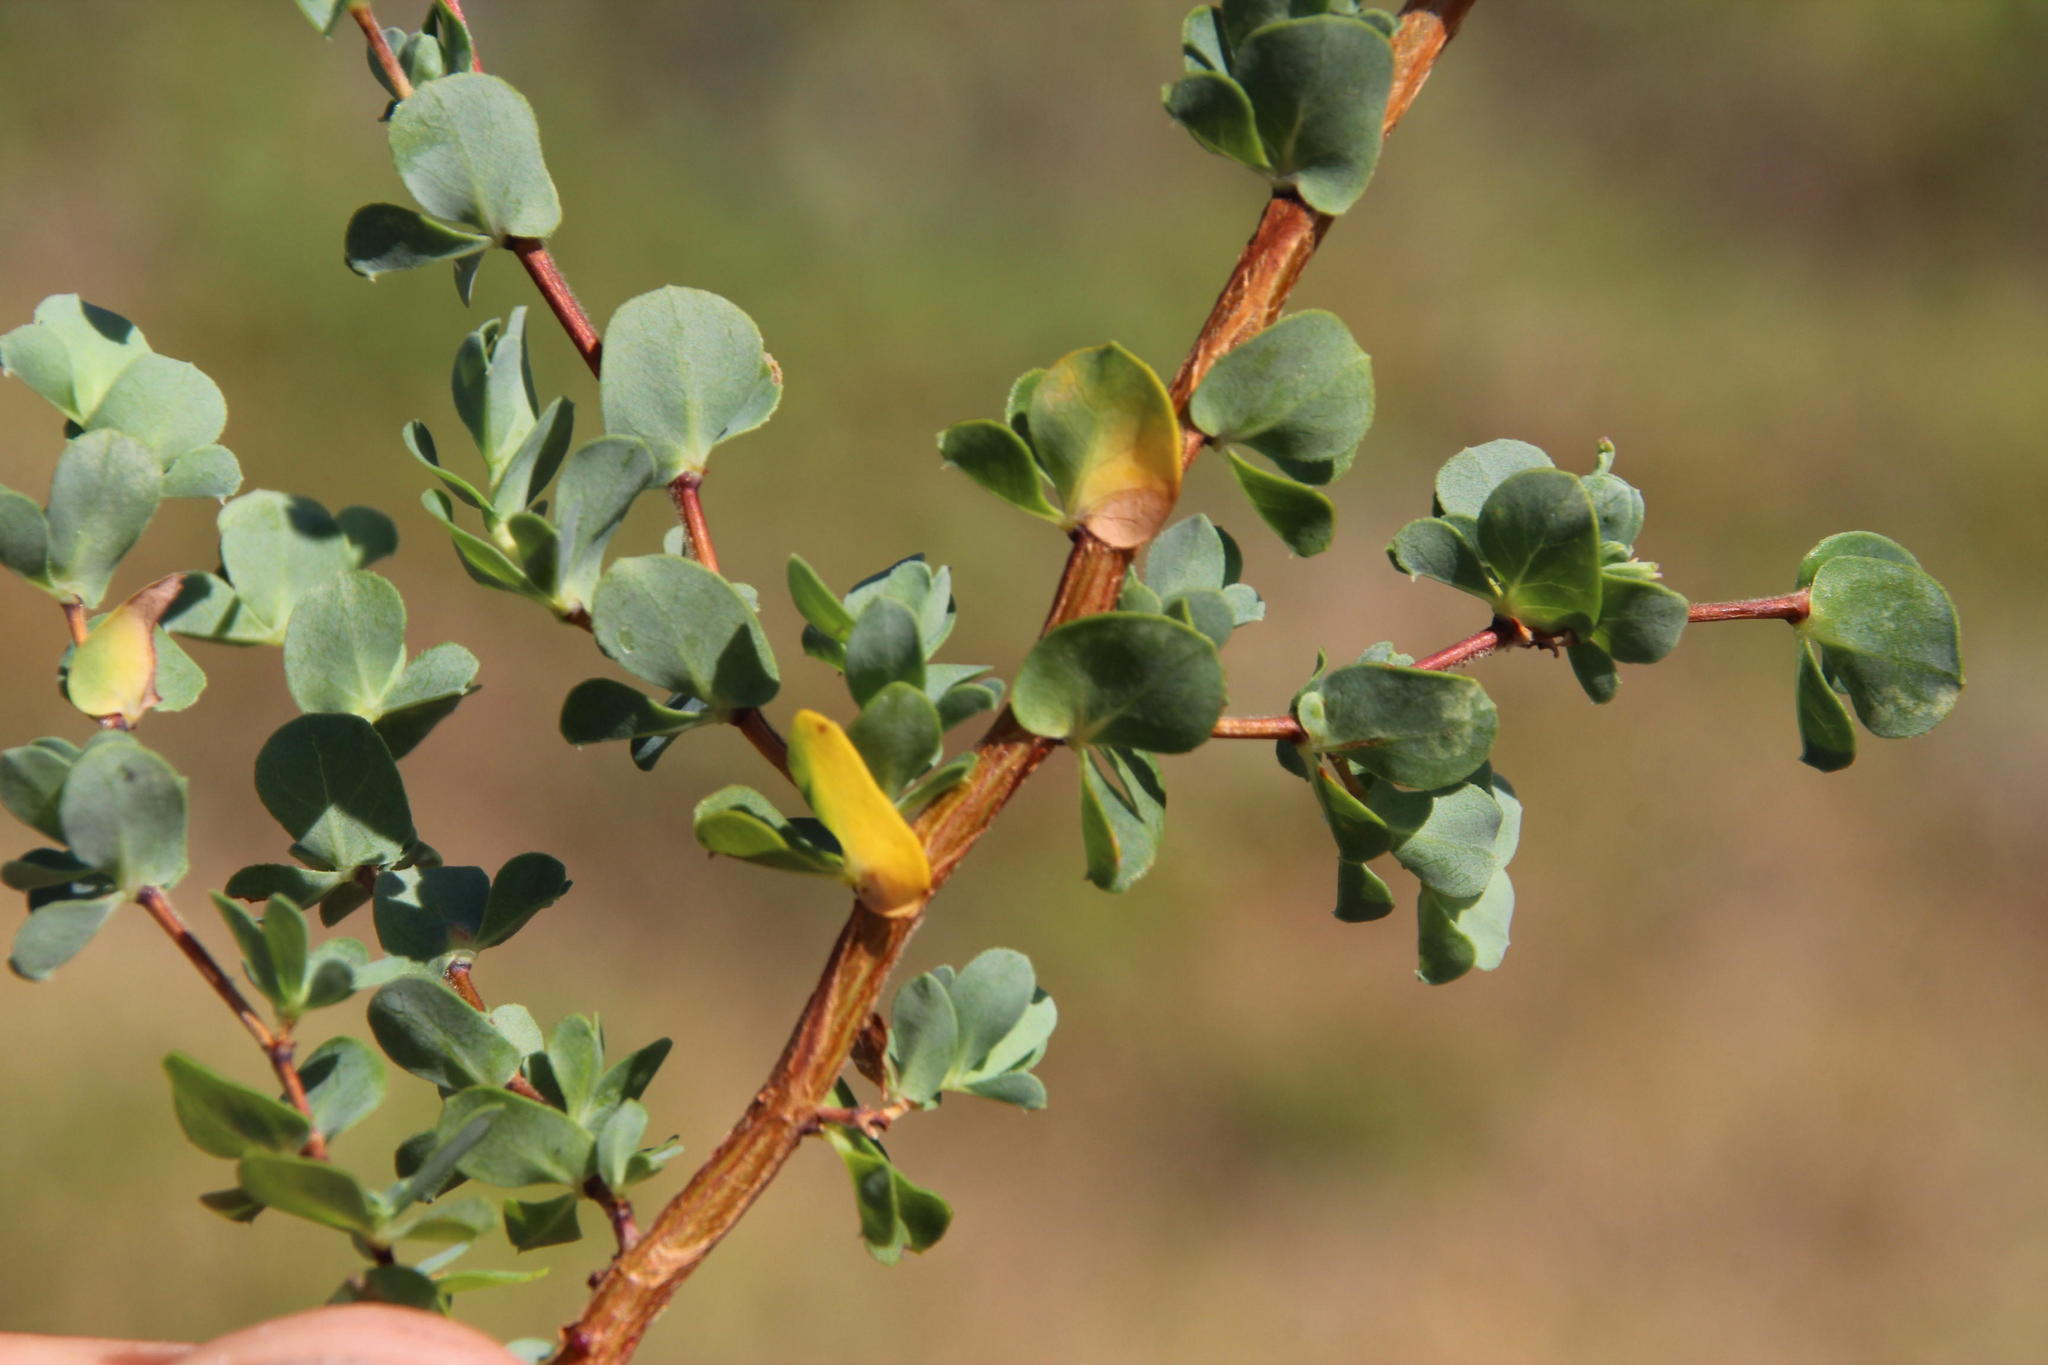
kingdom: Plantae
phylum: Tracheophyta
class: Magnoliopsida
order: Rosales
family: Rosaceae
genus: Cliffortia
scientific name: Cliffortia obcordata
